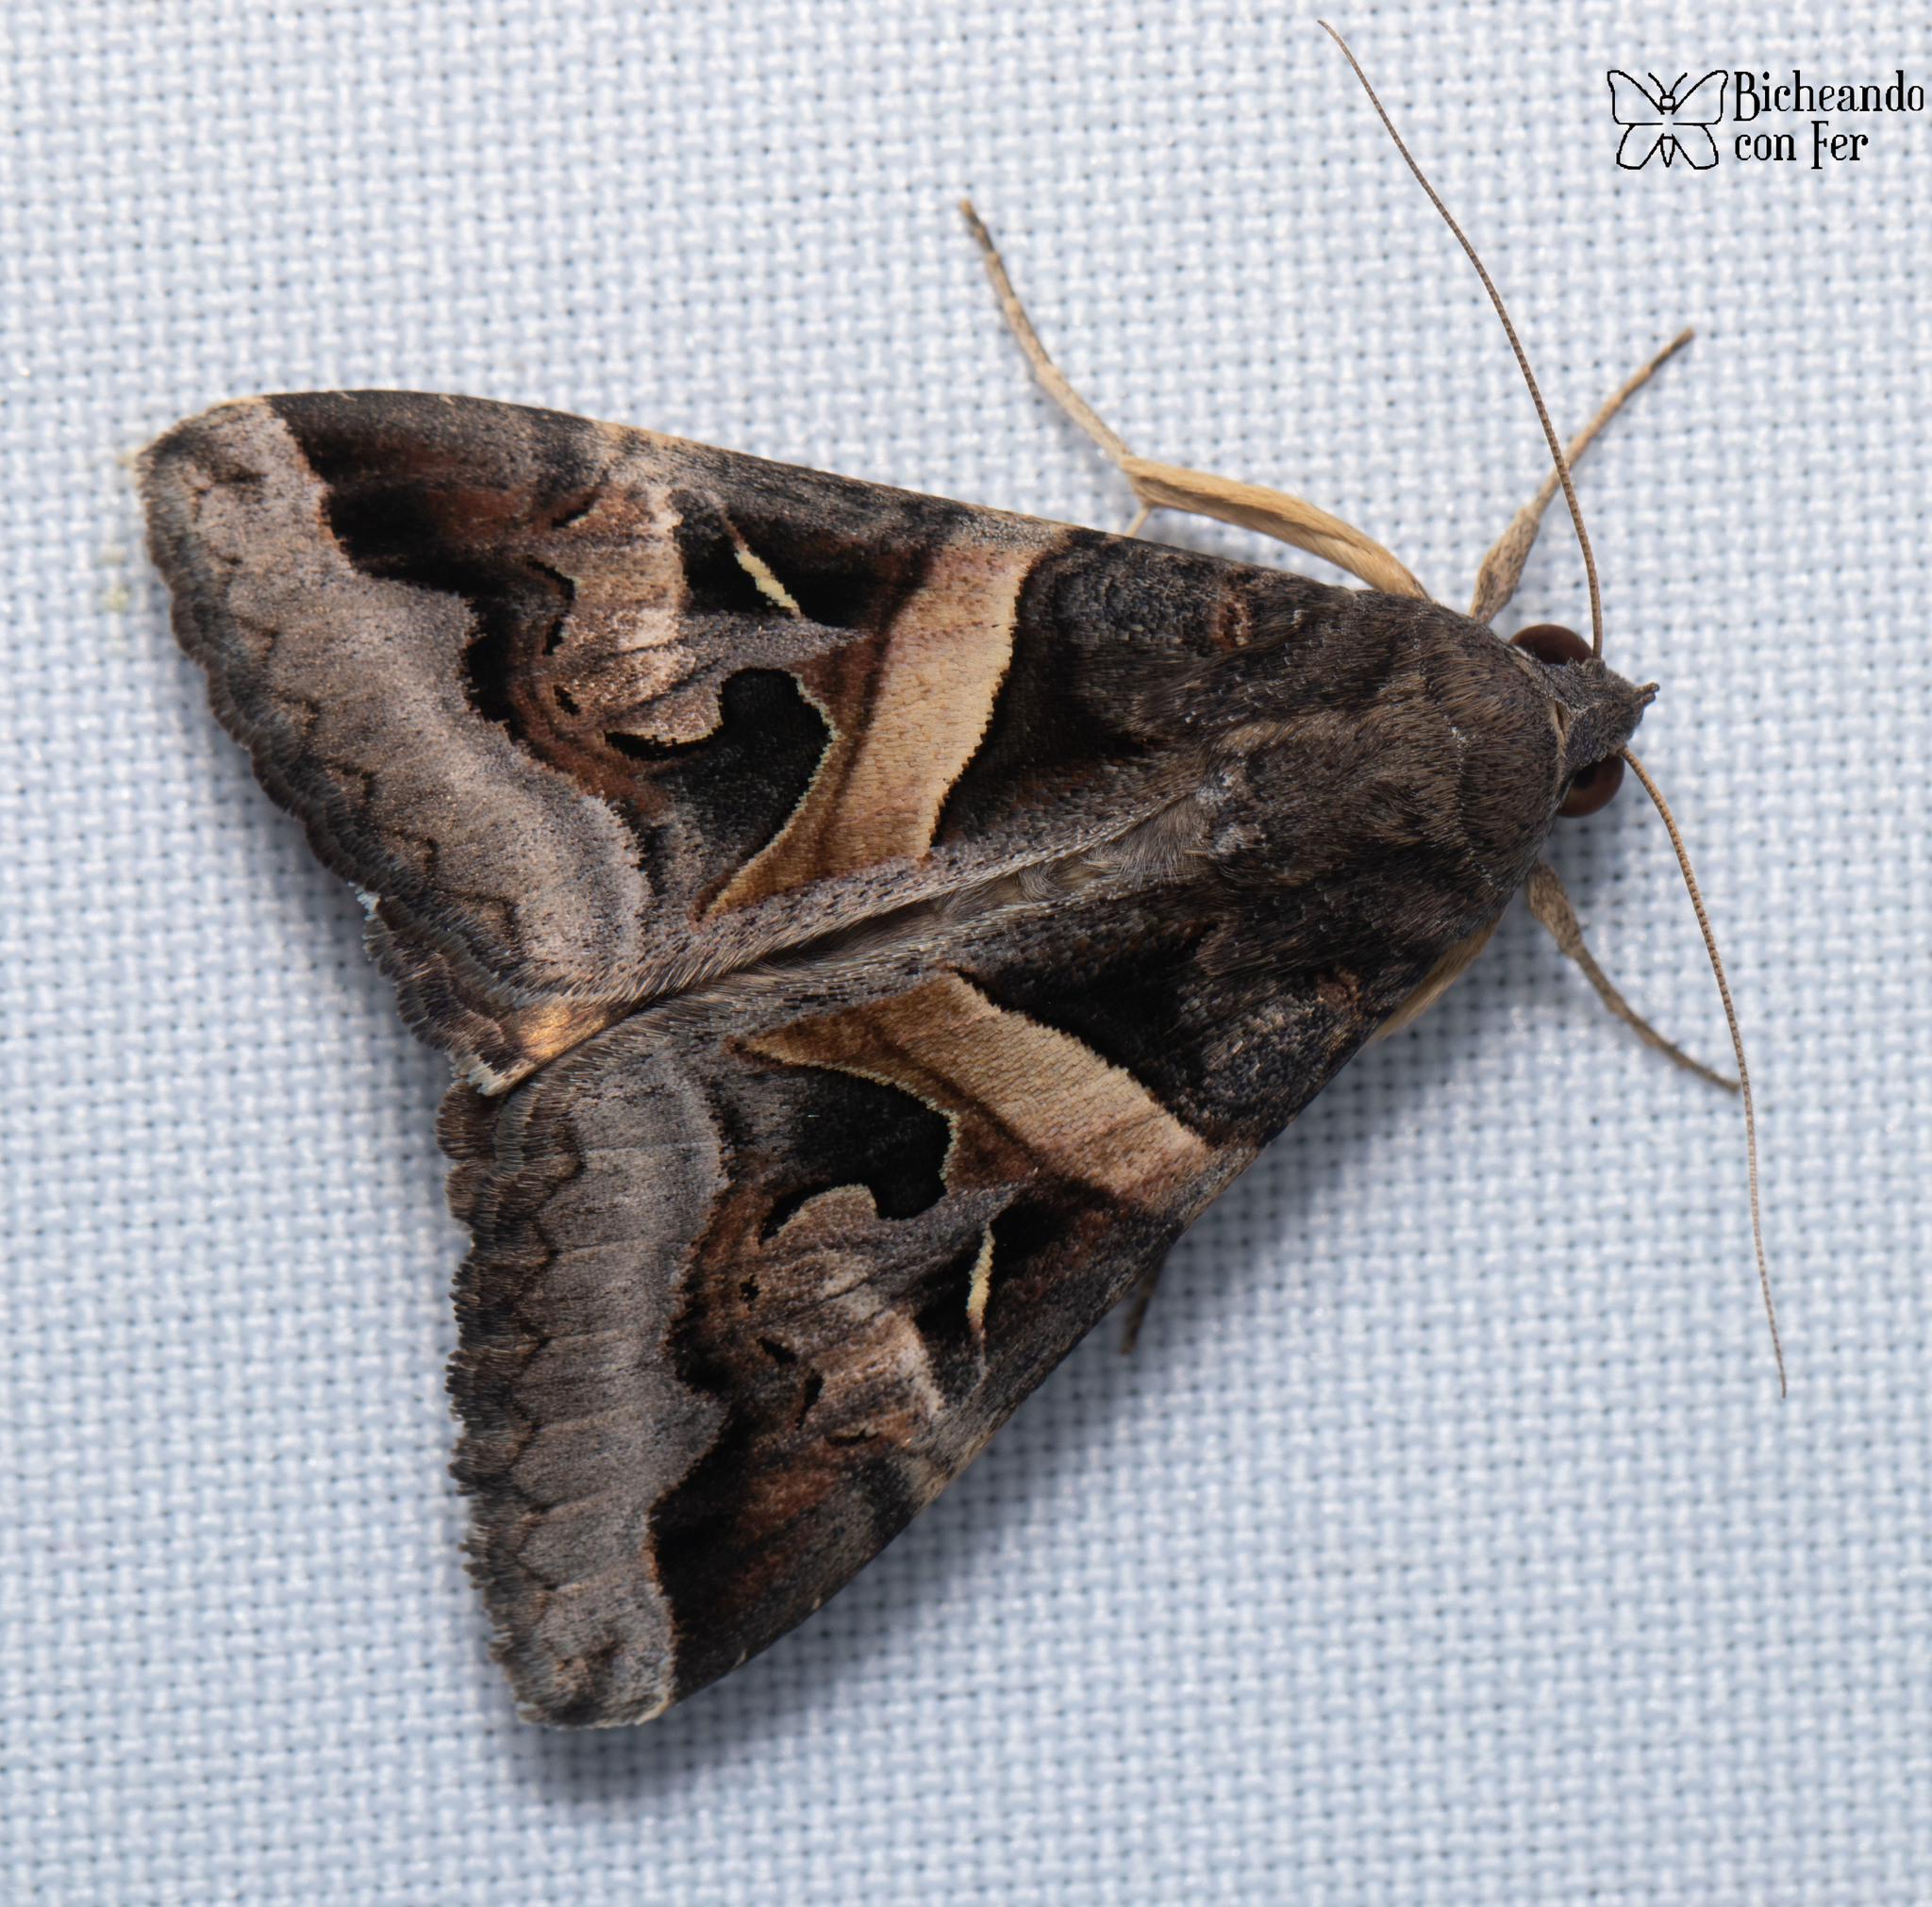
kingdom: Animalia
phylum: Arthropoda
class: Insecta
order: Lepidoptera
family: Erebidae
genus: Melipotis
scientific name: Melipotis indomita
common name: Moth
